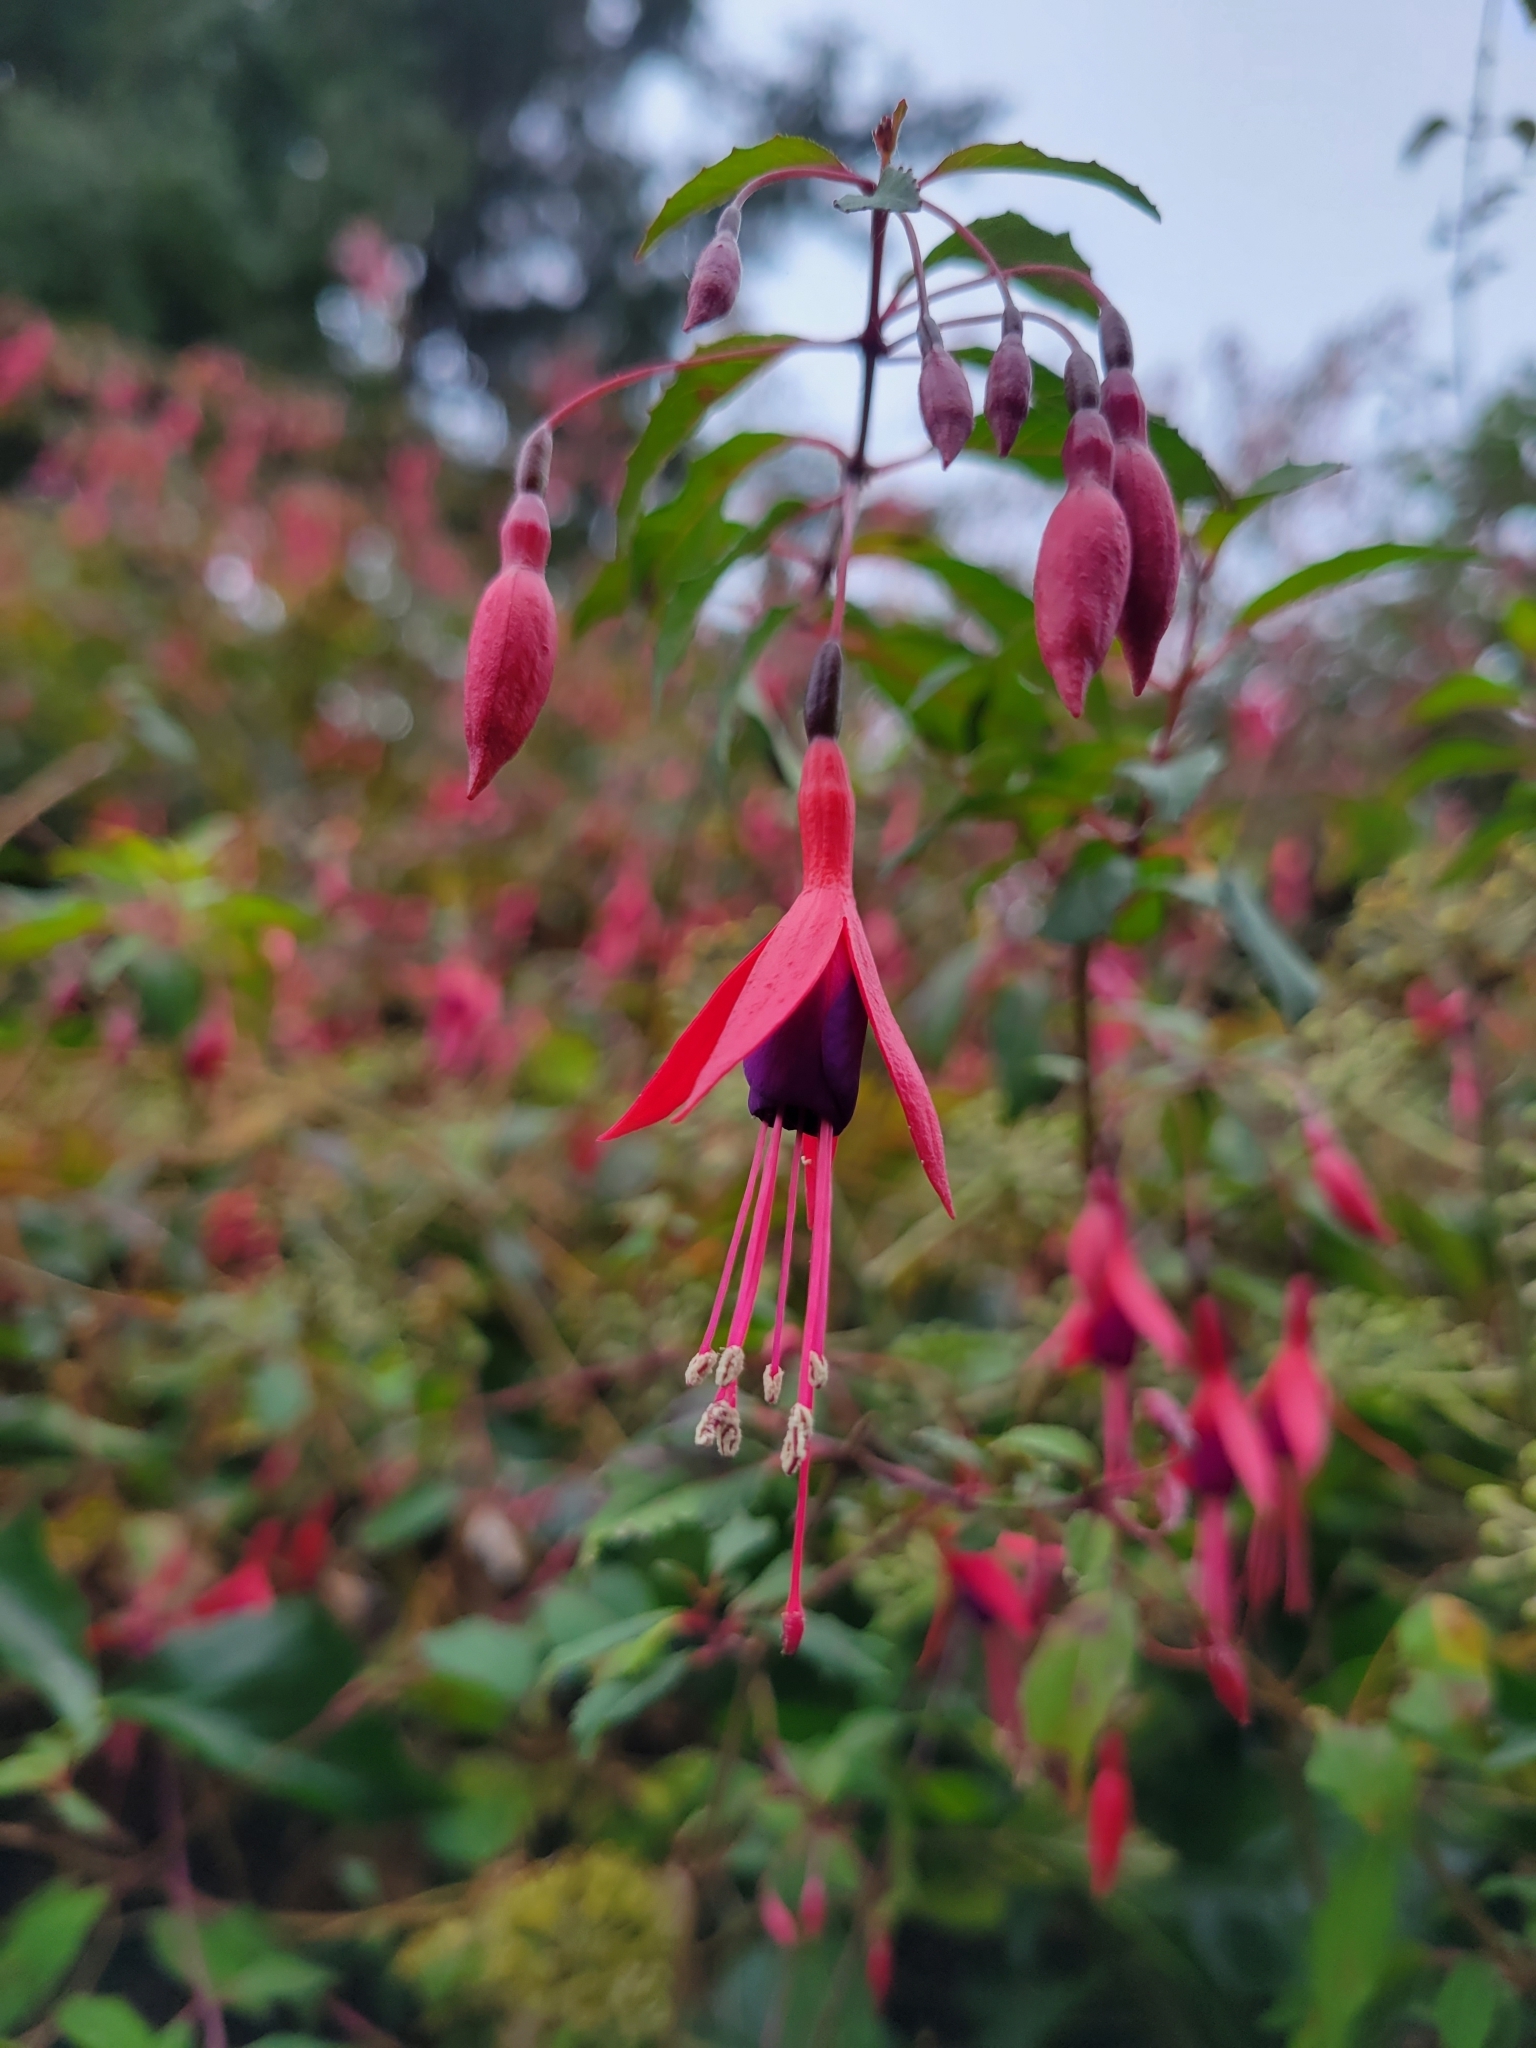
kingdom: Plantae
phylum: Tracheophyta
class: Magnoliopsida
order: Myrtales
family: Onagraceae
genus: Fuchsia
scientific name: Fuchsia magellanica
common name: Hardy fuchsia
